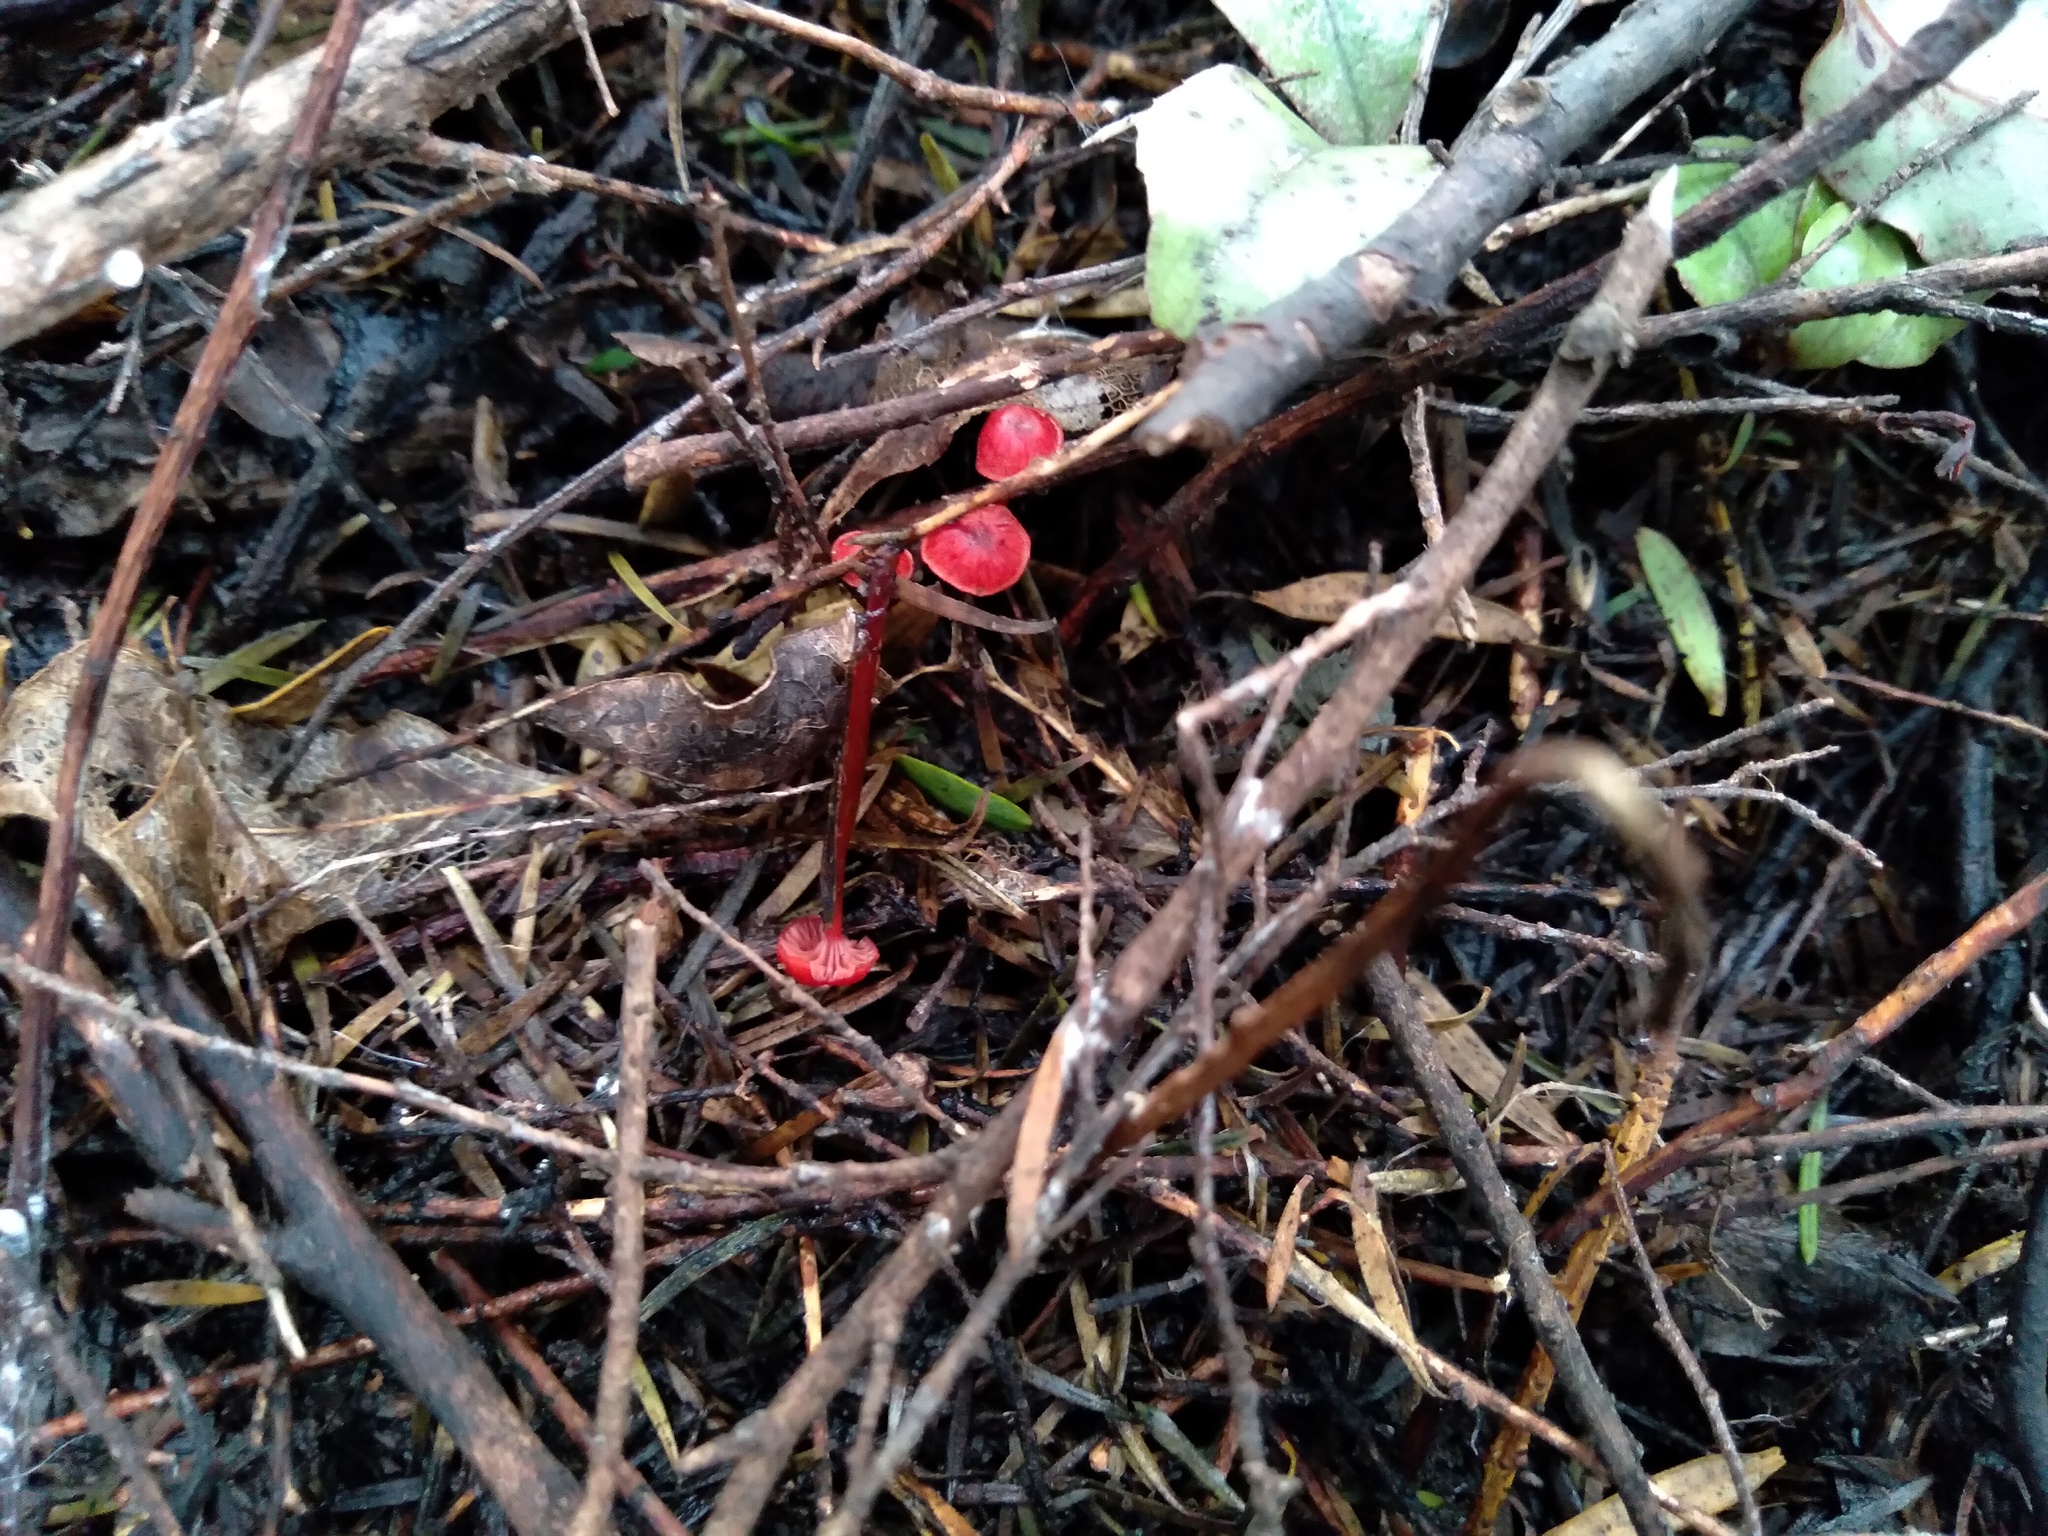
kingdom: Fungi
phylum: Basidiomycota
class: Agaricomycetes
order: Agaricales
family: Mycenaceae
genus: Cruentomycena
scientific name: Cruentomycena viscidocruenta
